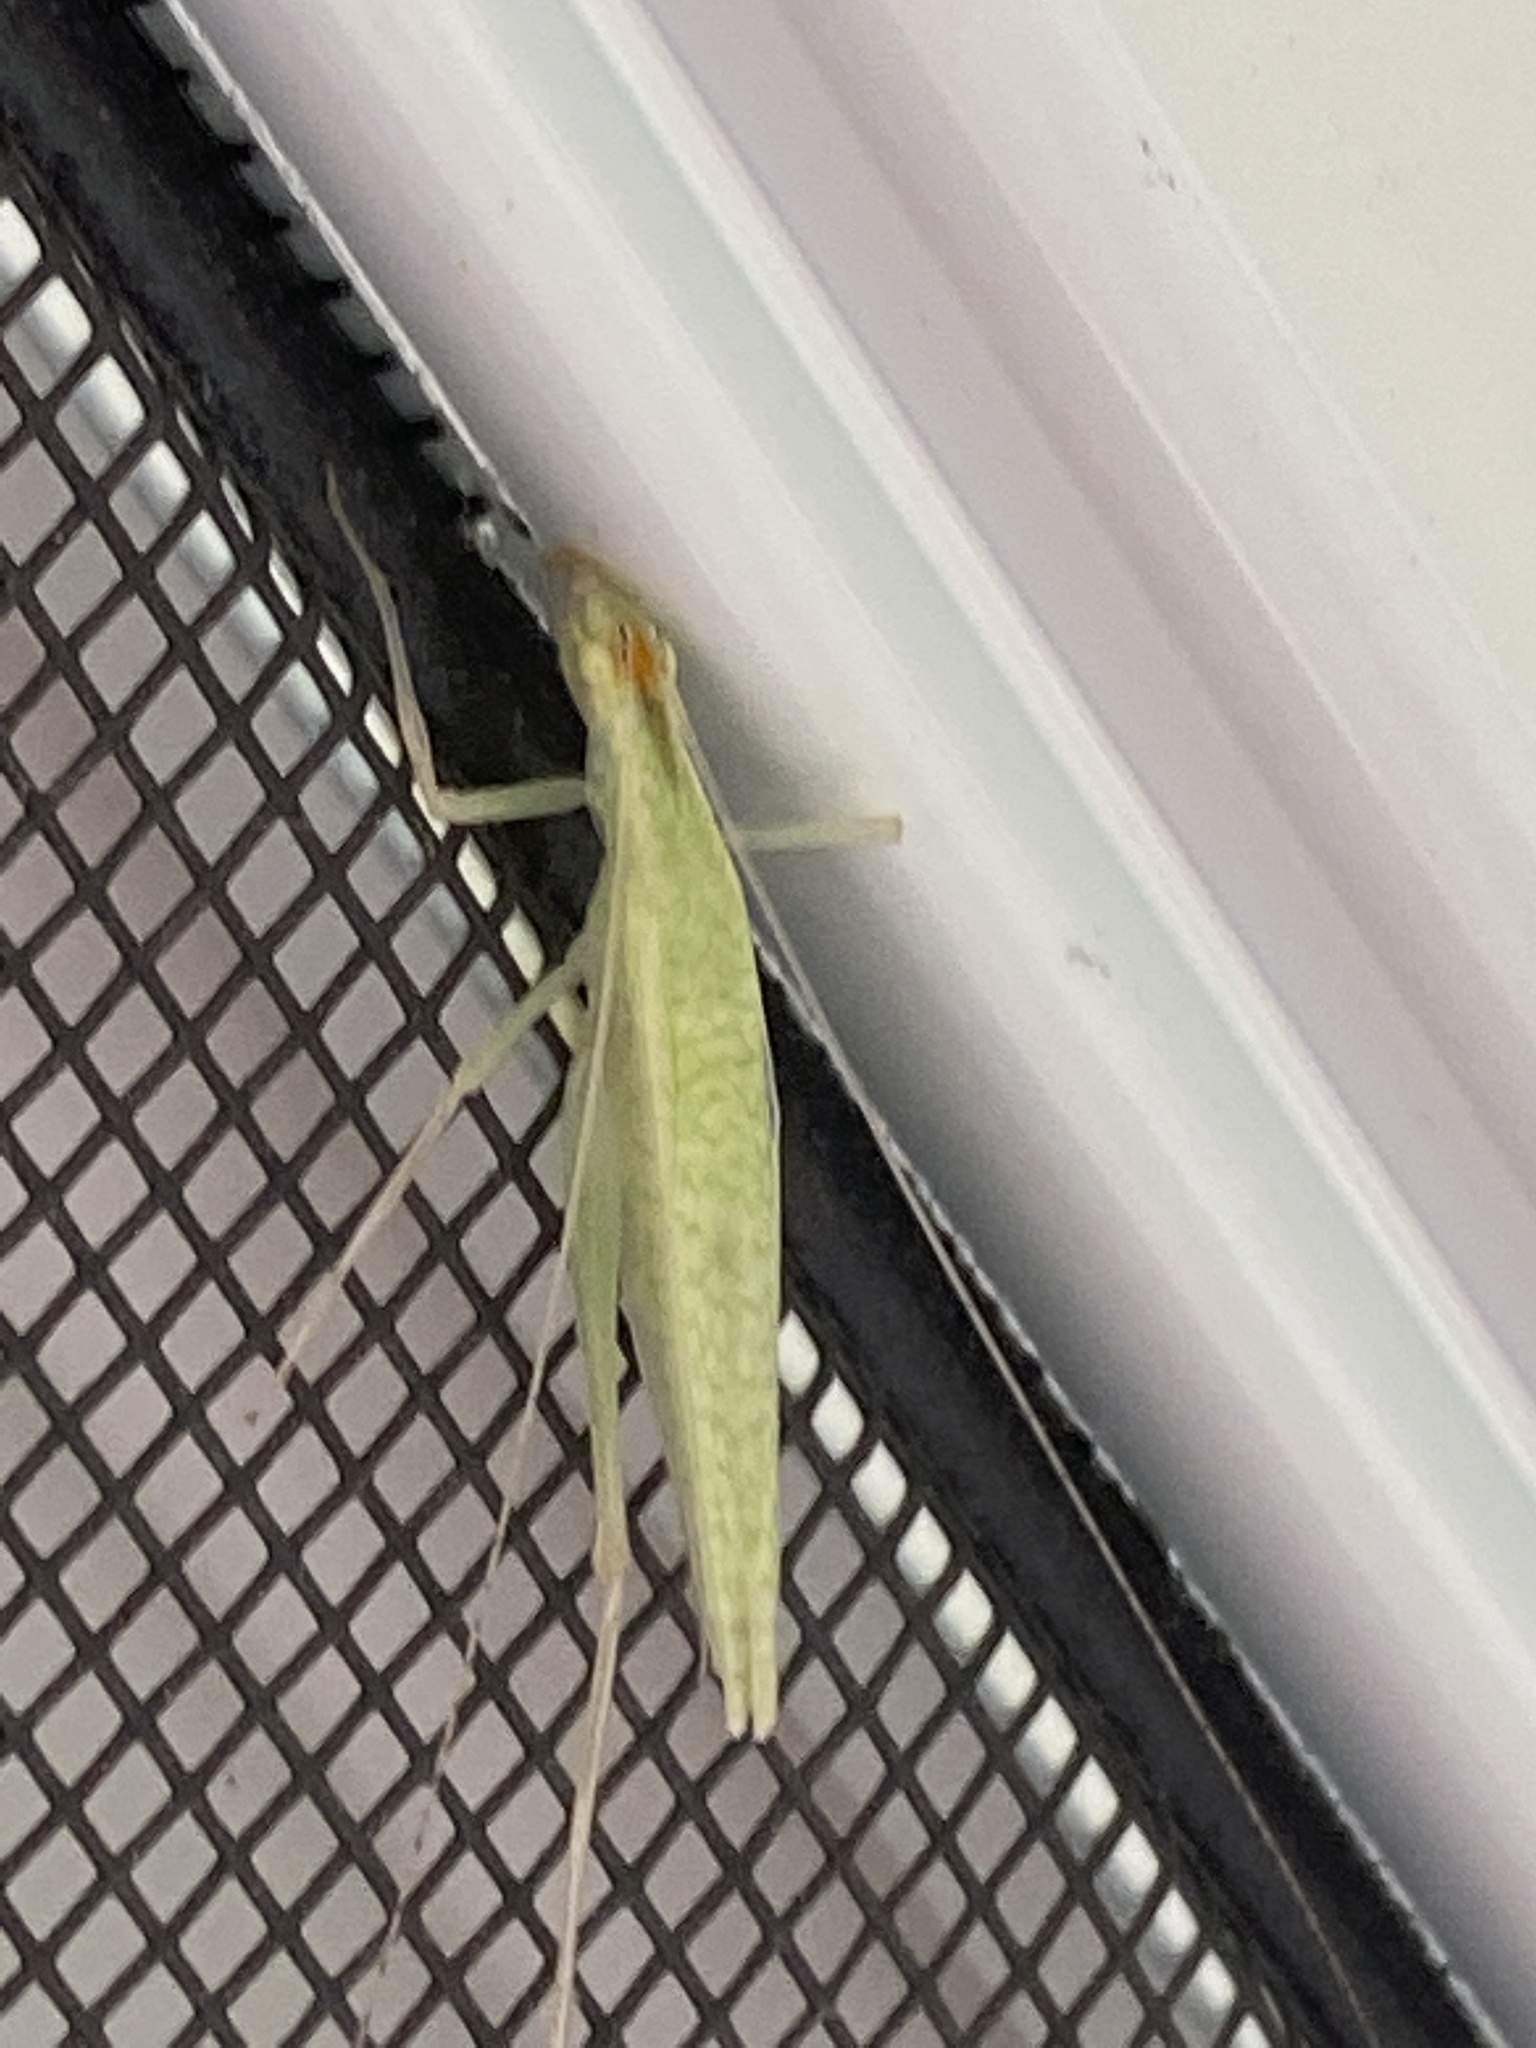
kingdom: Animalia
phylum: Arthropoda
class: Insecta
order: Orthoptera
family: Gryllidae
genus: Oecanthus
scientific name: Oecanthus niveus
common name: Narrow-winged tree cricket
